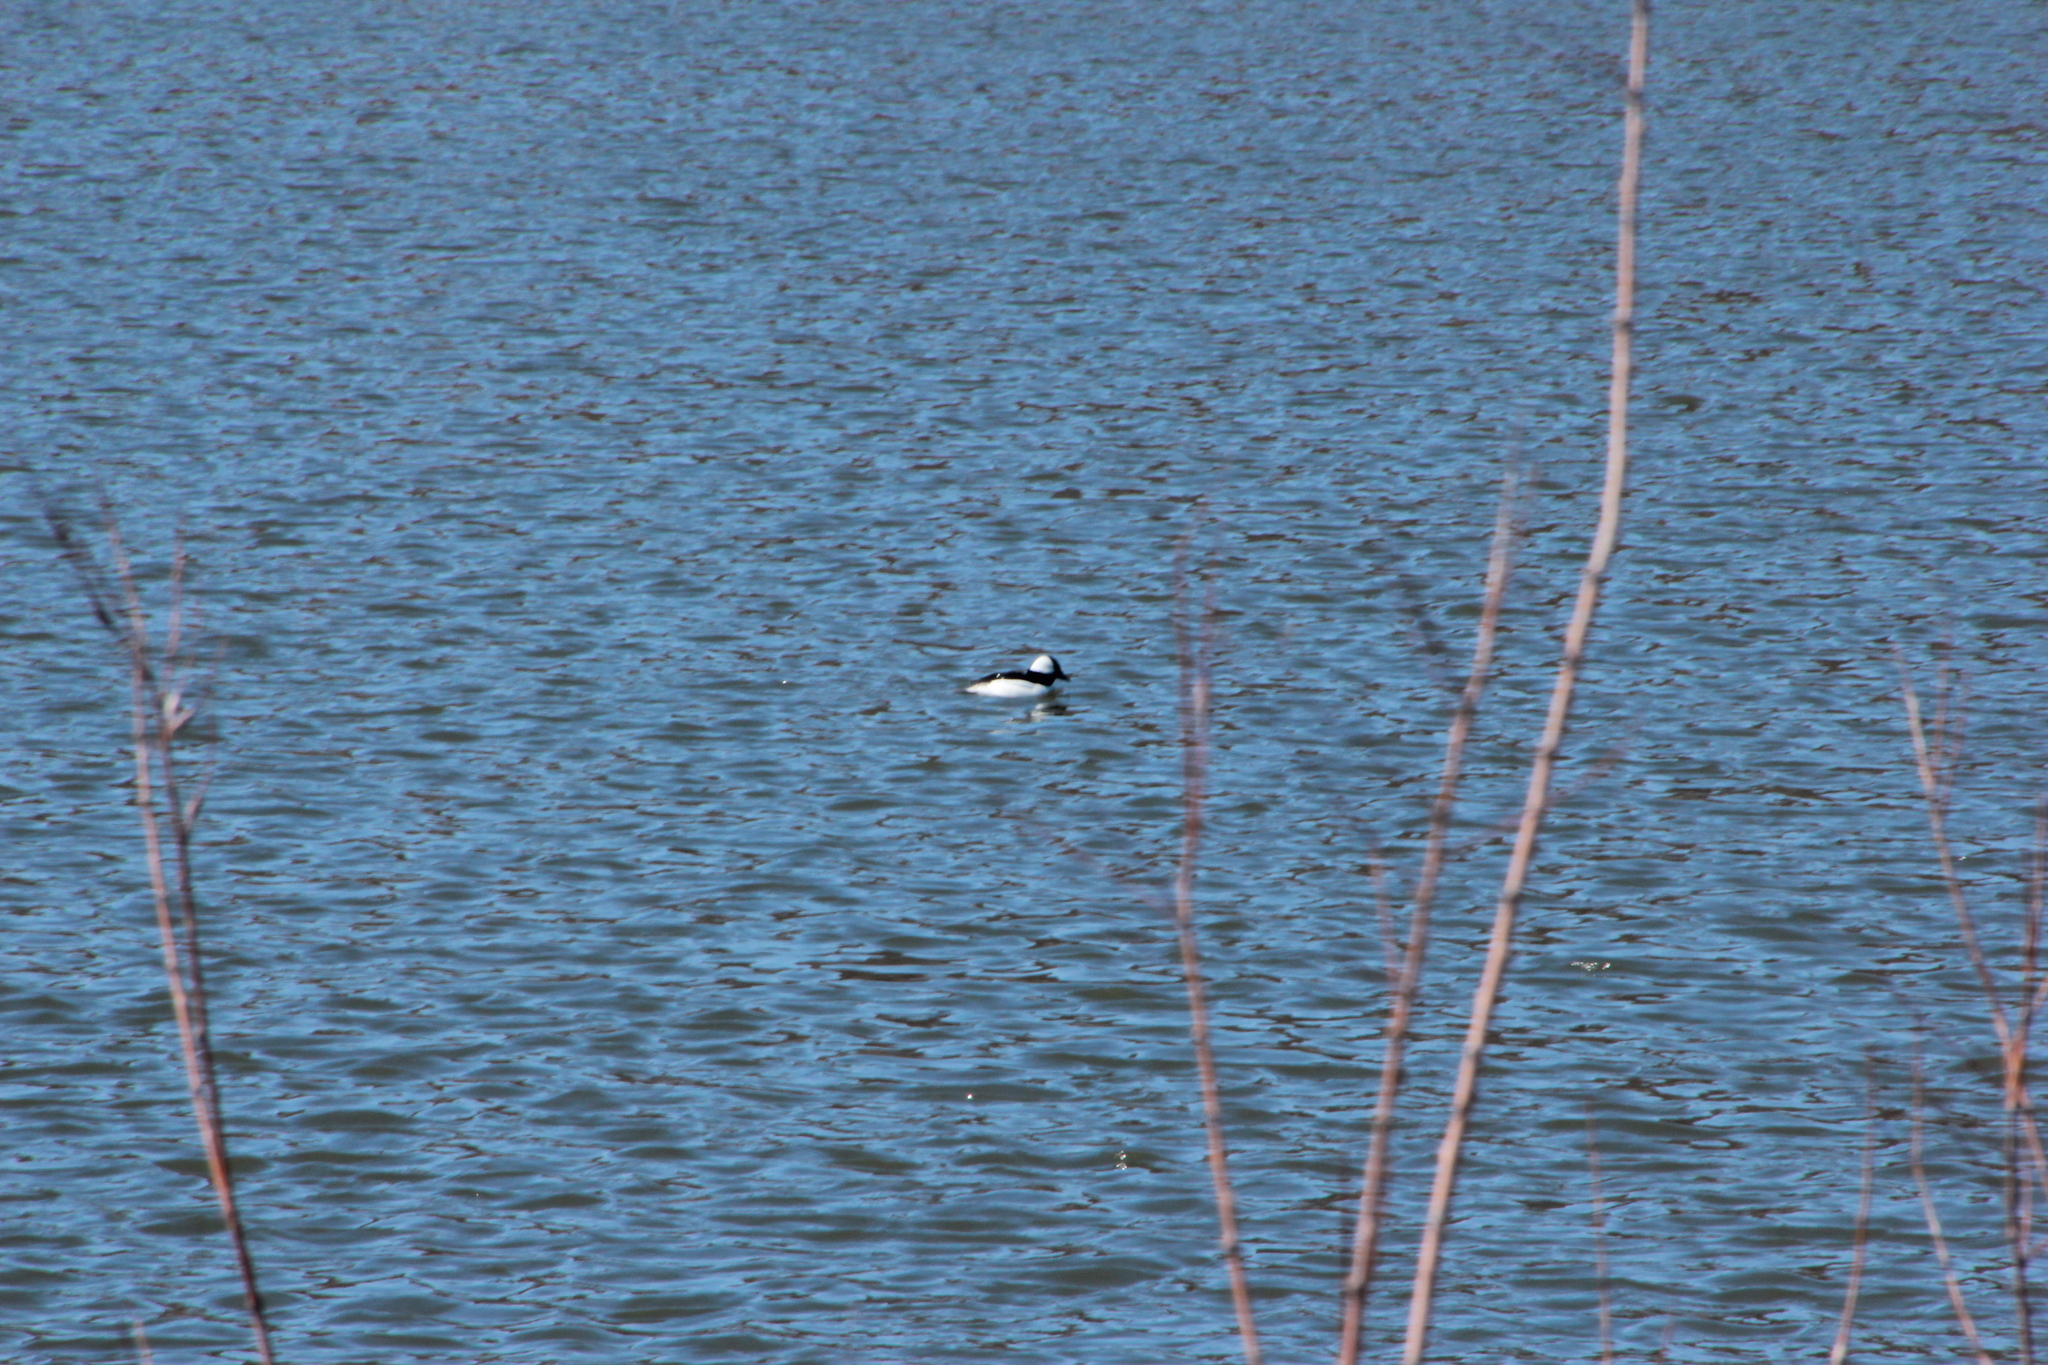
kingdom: Animalia
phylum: Chordata
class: Aves
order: Anseriformes
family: Anatidae
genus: Bucephala
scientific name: Bucephala albeola
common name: Bufflehead
